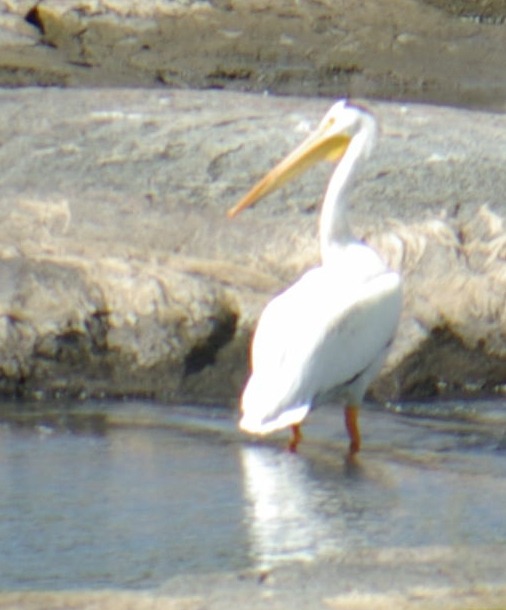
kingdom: Animalia
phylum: Chordata
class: Aves
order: Pelecaniformes
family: Pelecanidae
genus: Pelecanus
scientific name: Pelecanus erythrorhynchos
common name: American white pelican
